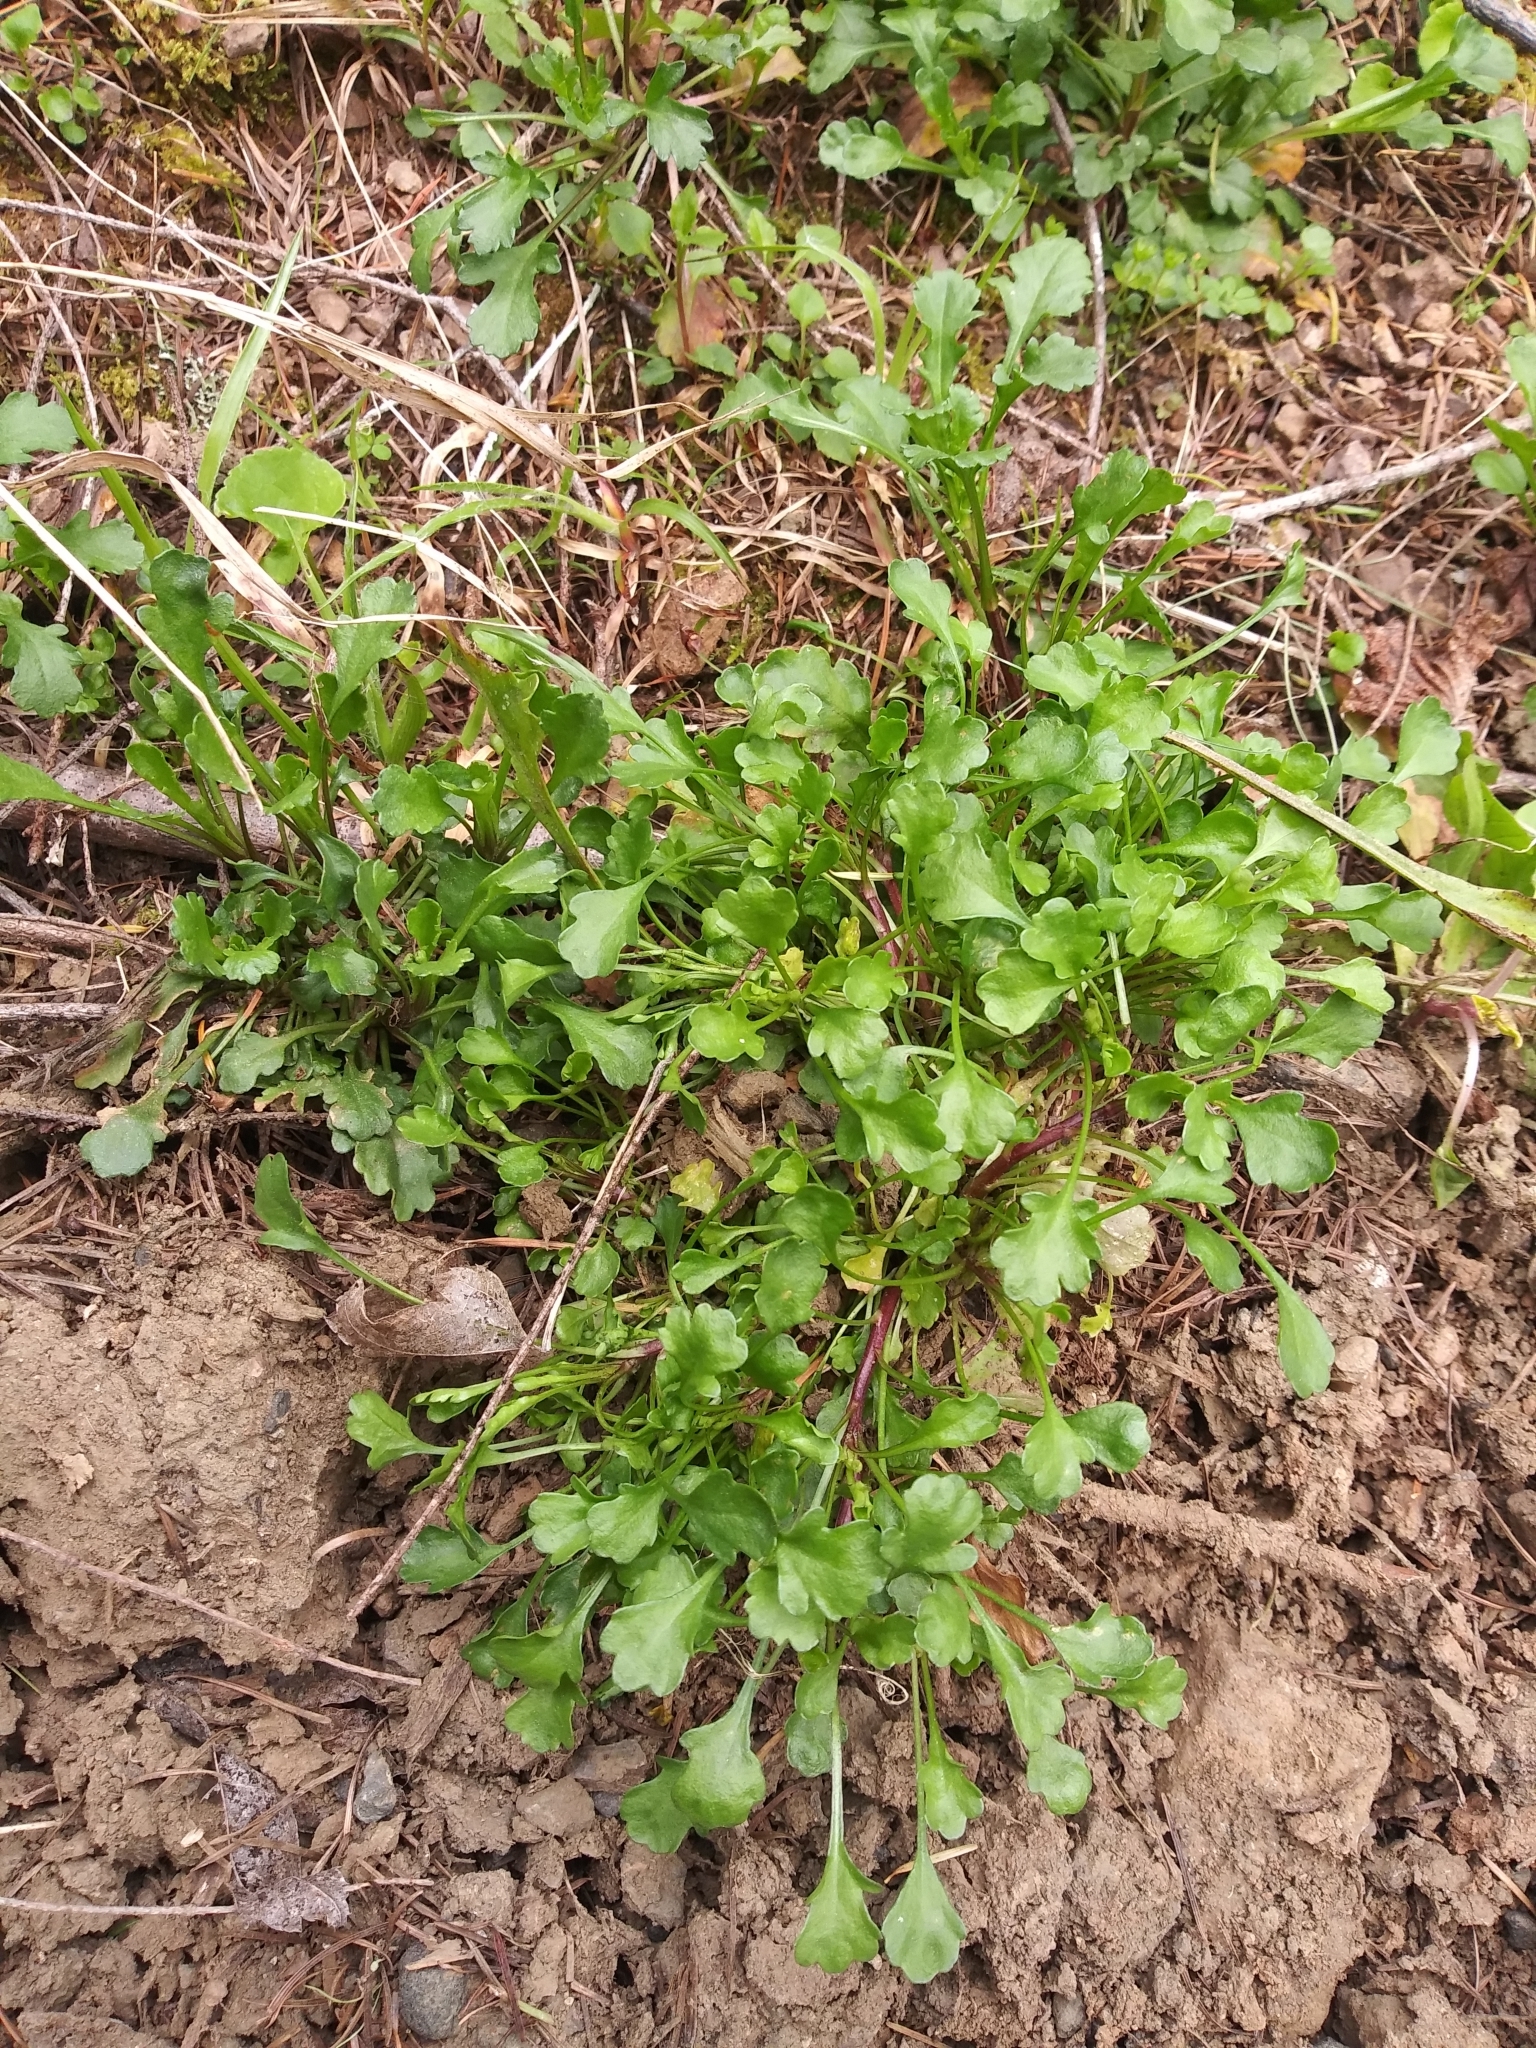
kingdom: Plantae
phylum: Tracheophyta
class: Magnoliopsida
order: Asterales
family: Asteraceae
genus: Leucanthemum
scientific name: Leucanthemum vulgare
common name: Oxeye daisy
